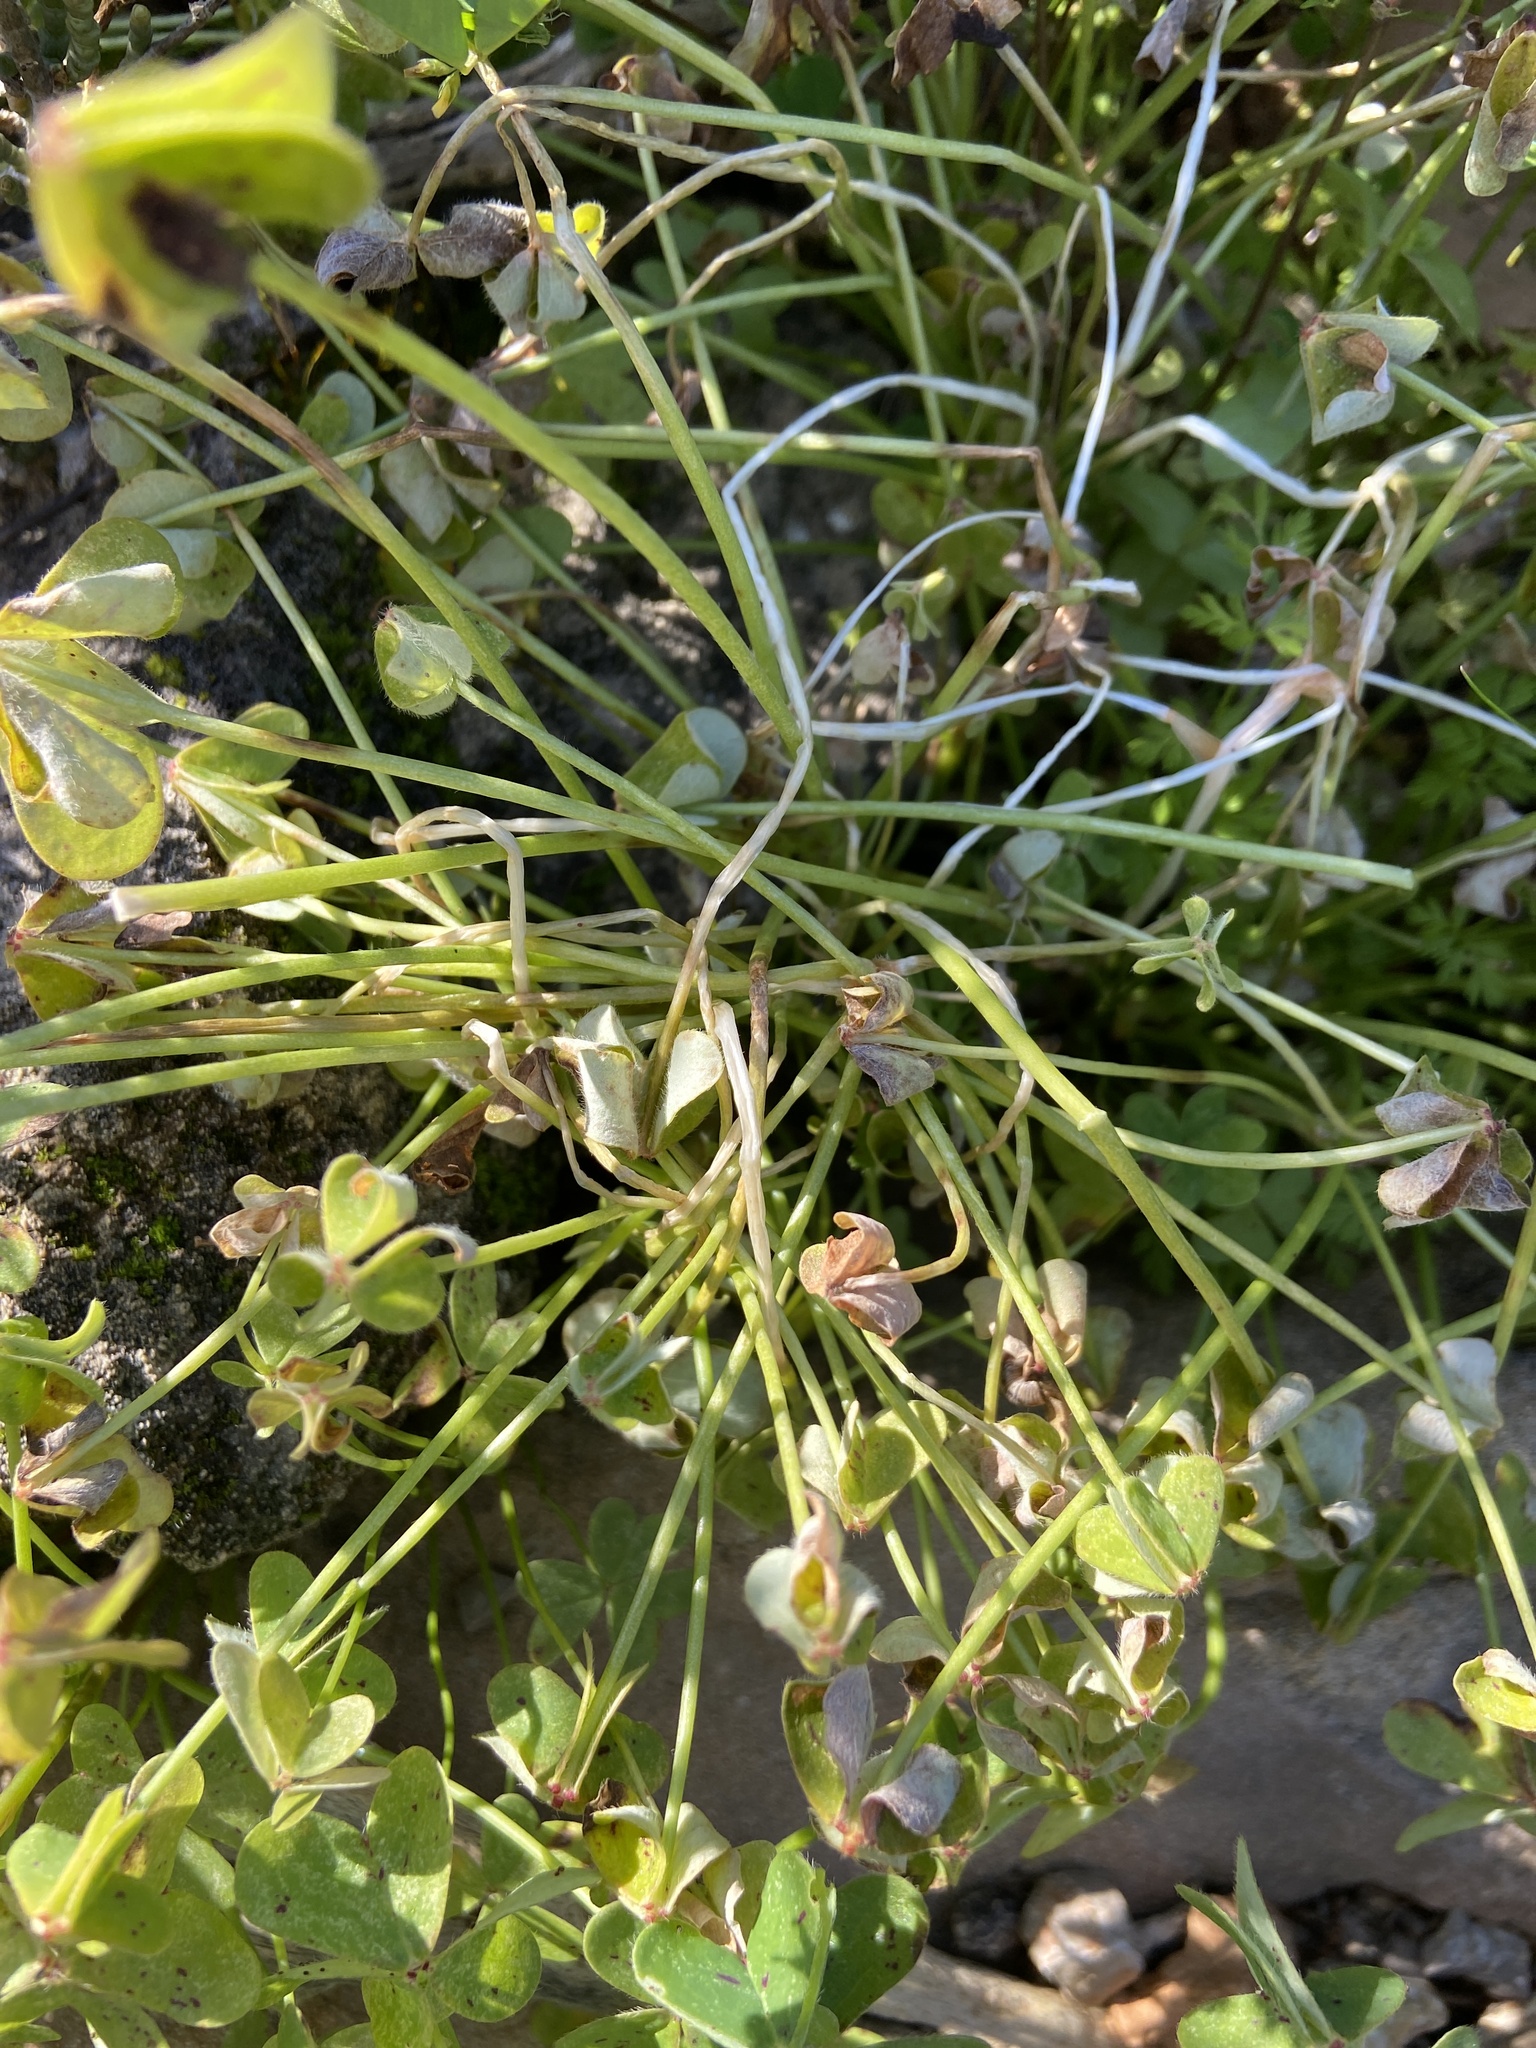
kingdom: Plantae
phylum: Tracheophyta
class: Magnoliopsida
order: Oxalidales
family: Oxalidaceae
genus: Oxalis
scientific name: Oxalis pes-caprae
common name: Bermuda-buttercup
